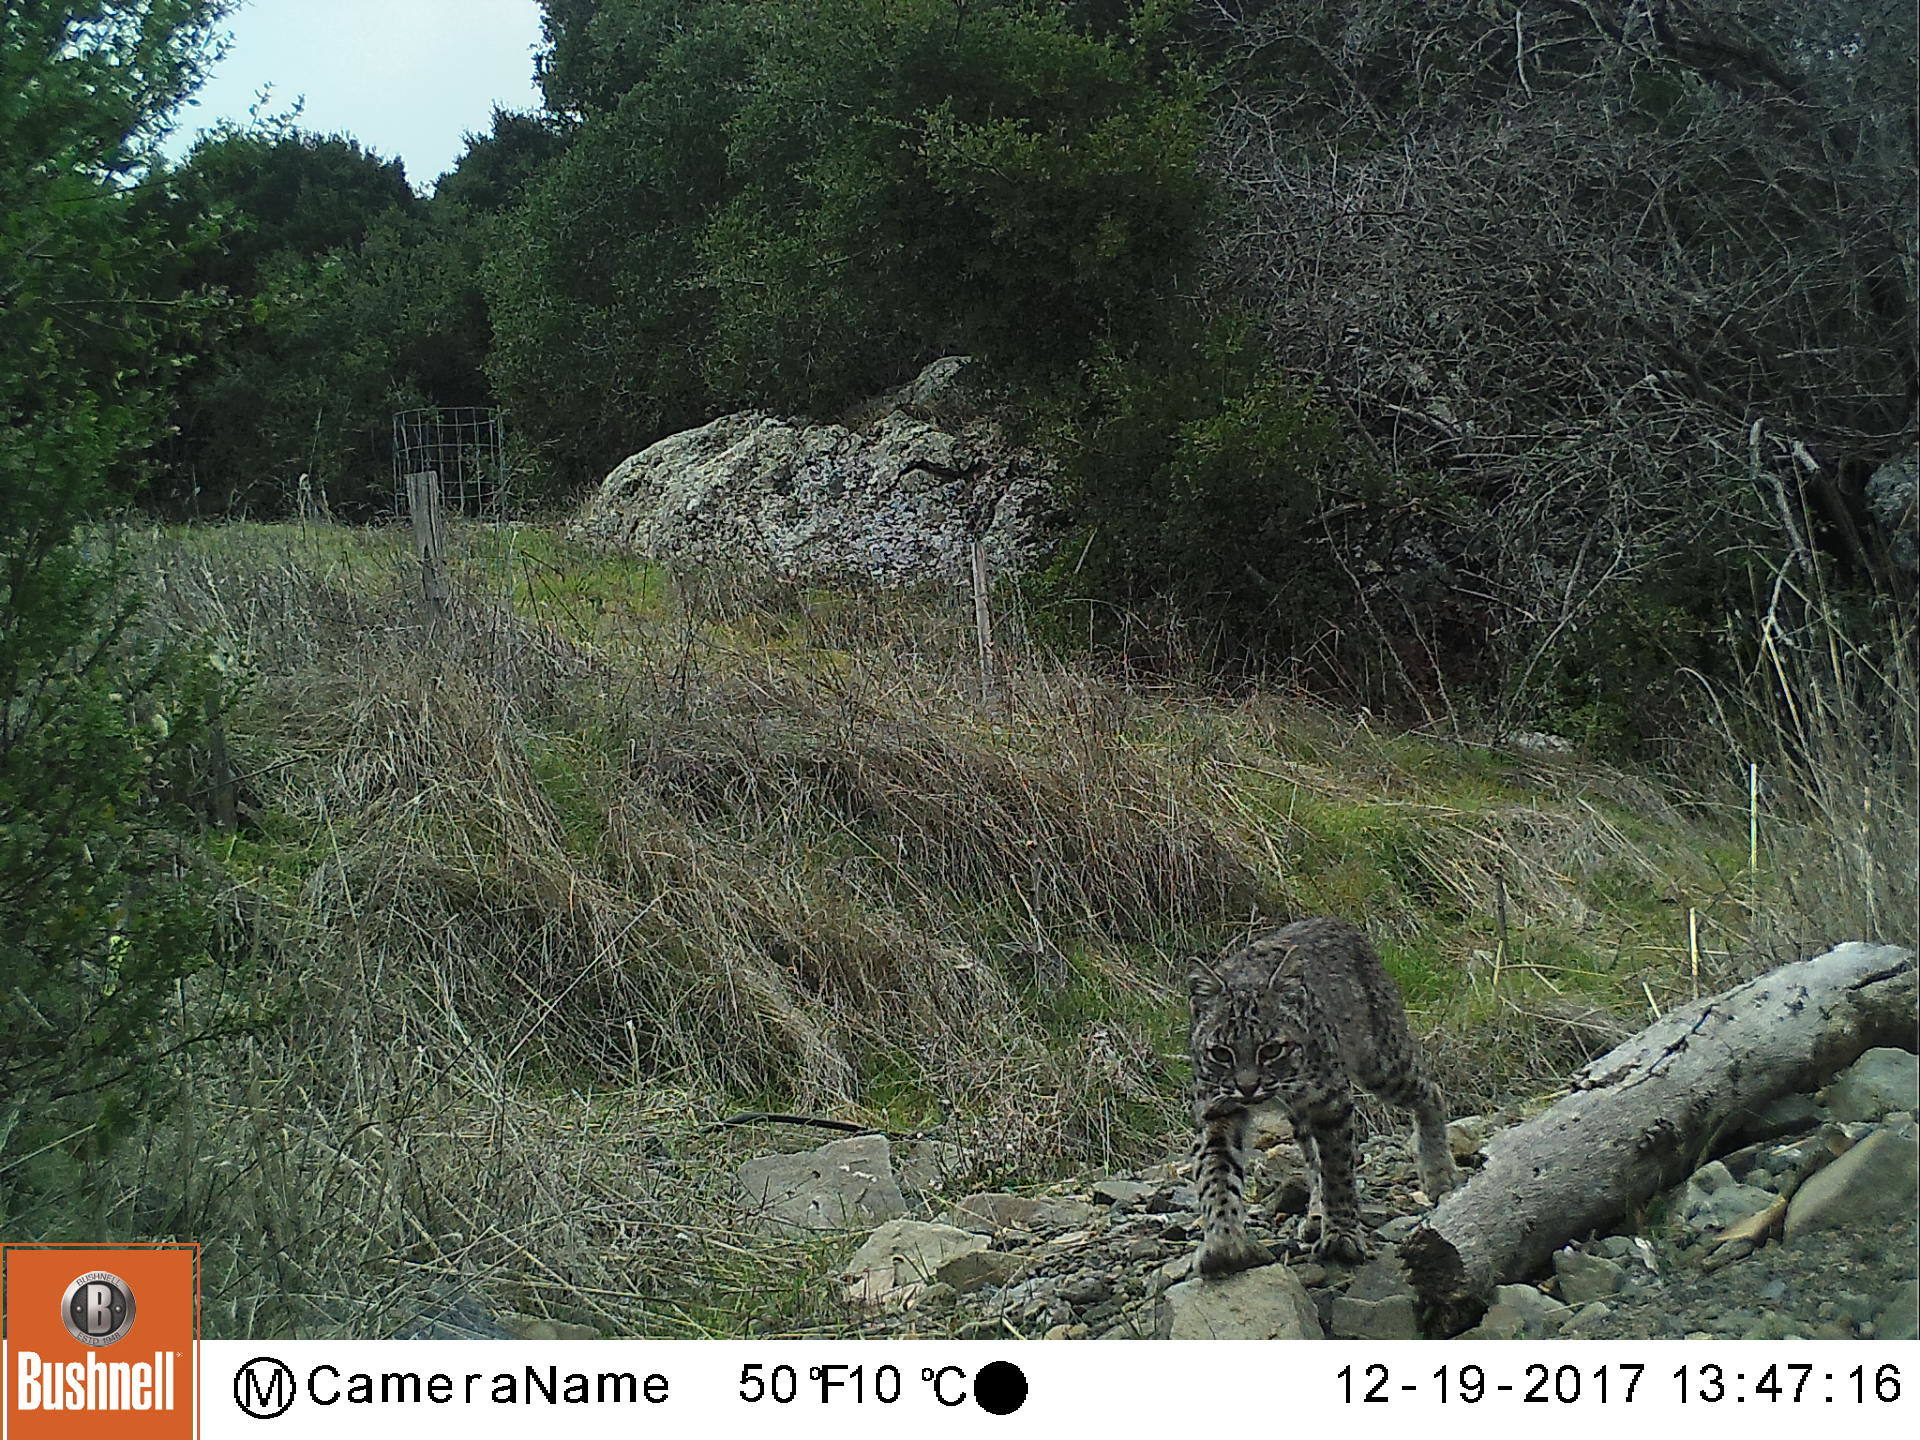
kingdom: Animalia
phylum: Chordata
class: Mammalia
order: Carnivora
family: Felidae
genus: Lynx
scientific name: Lynx rufus
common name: Bobcat
